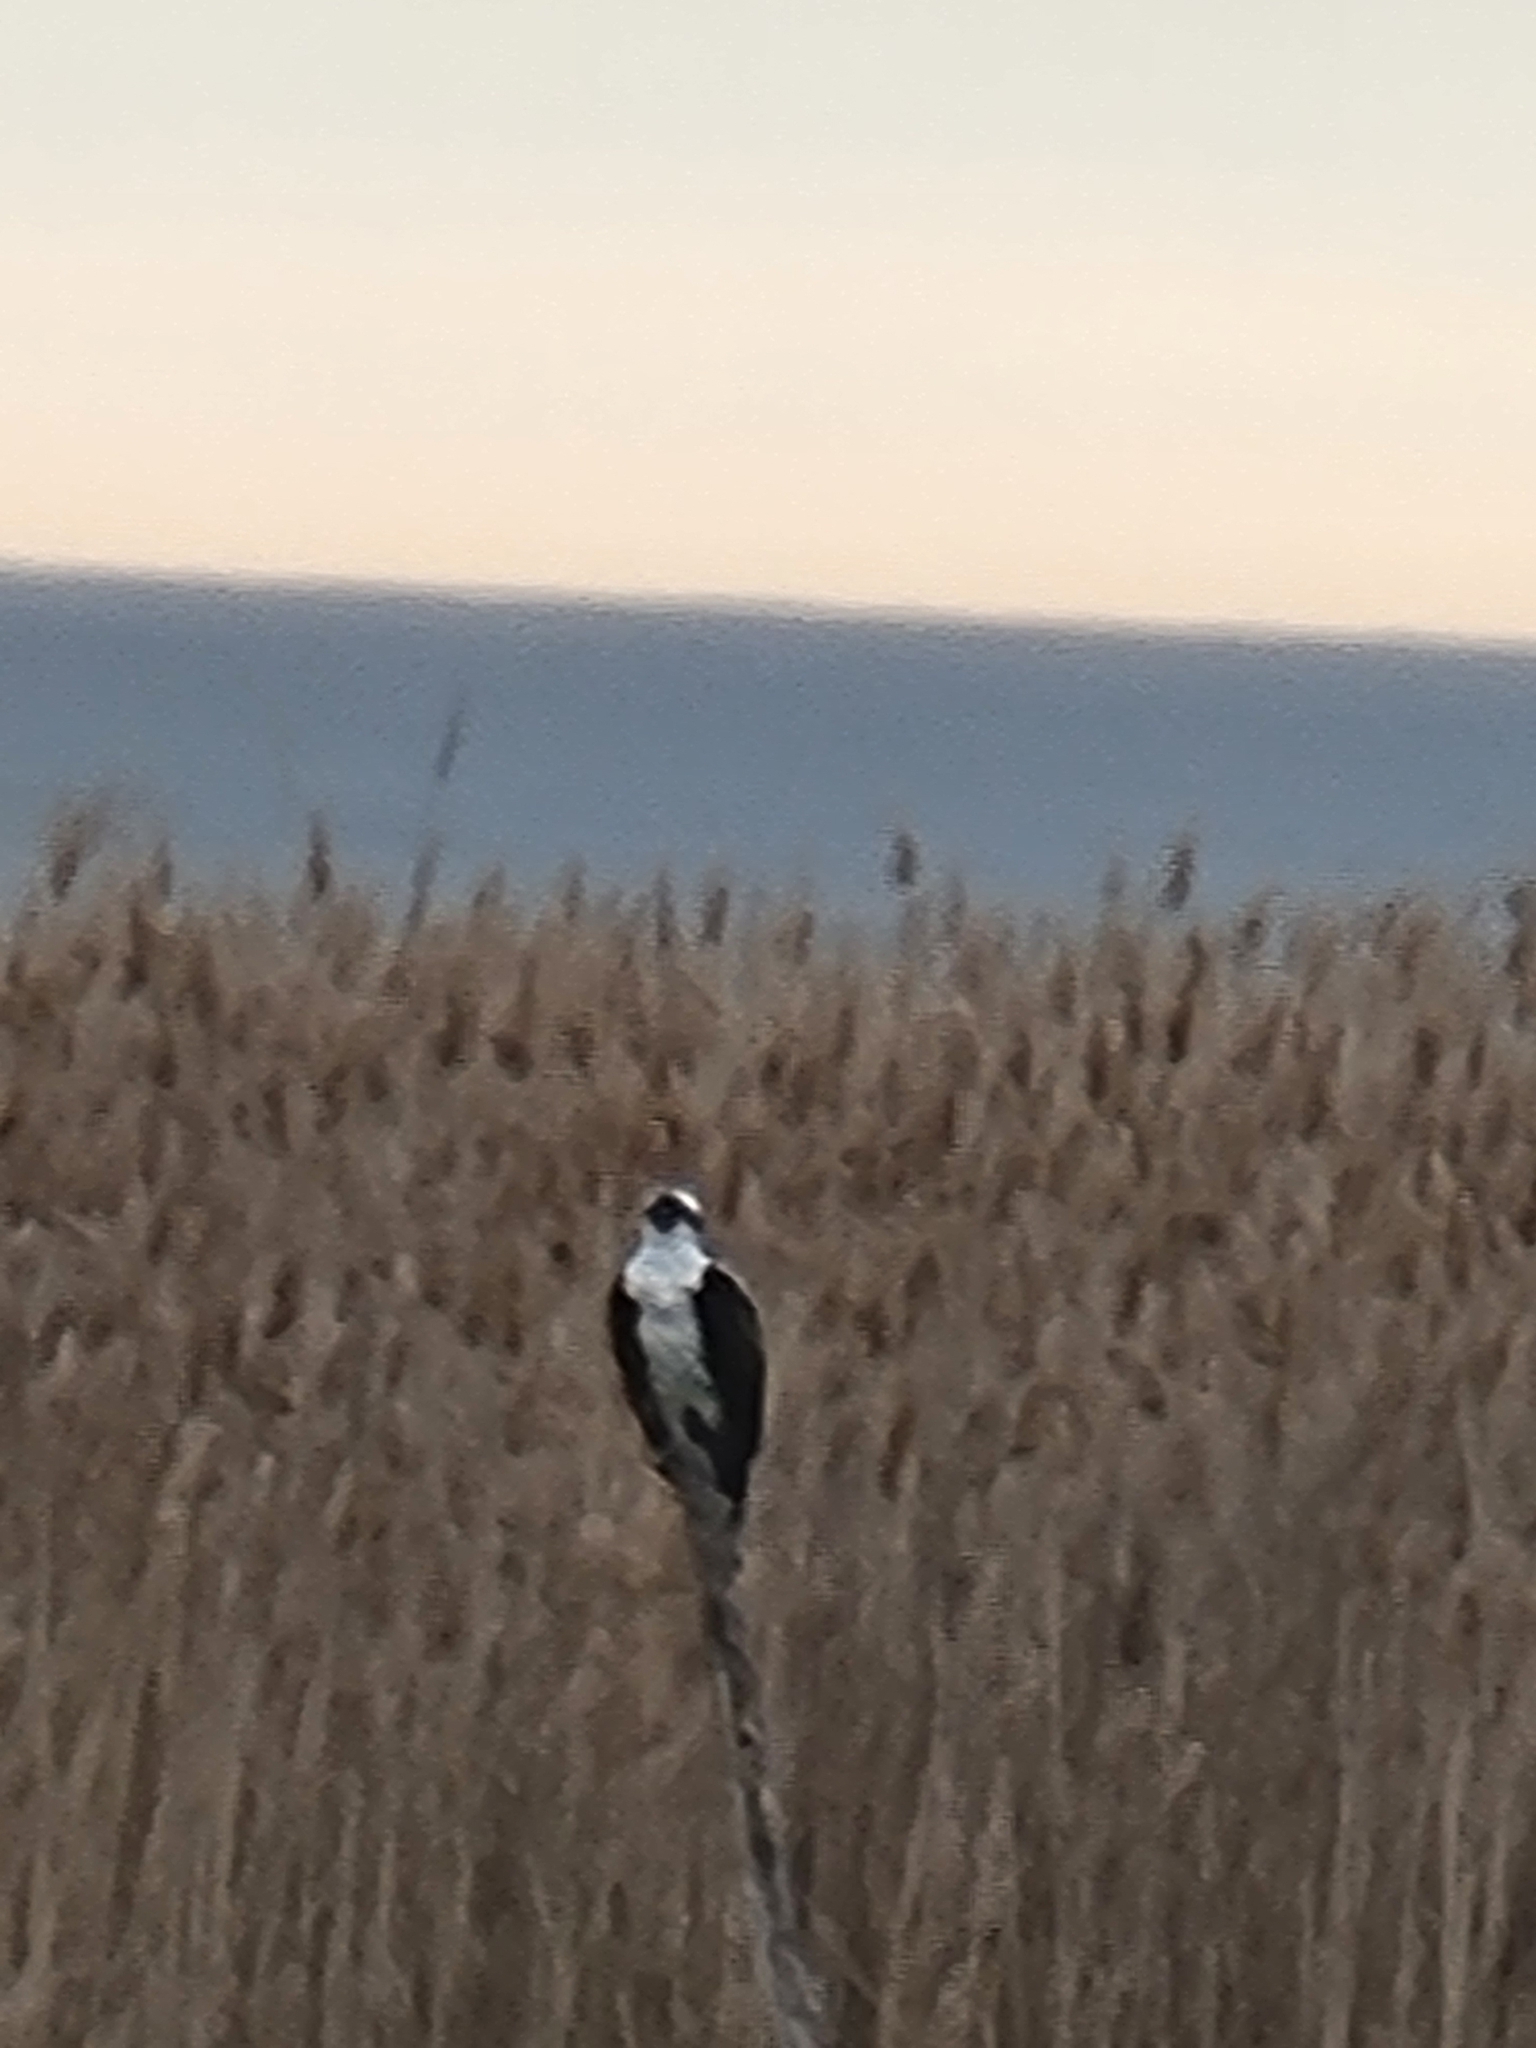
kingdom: Animalia
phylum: Chordata
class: Aves
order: Accipitriformes
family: Pandionidae
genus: Pandion
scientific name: Pandion haliaetus
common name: Osprey
